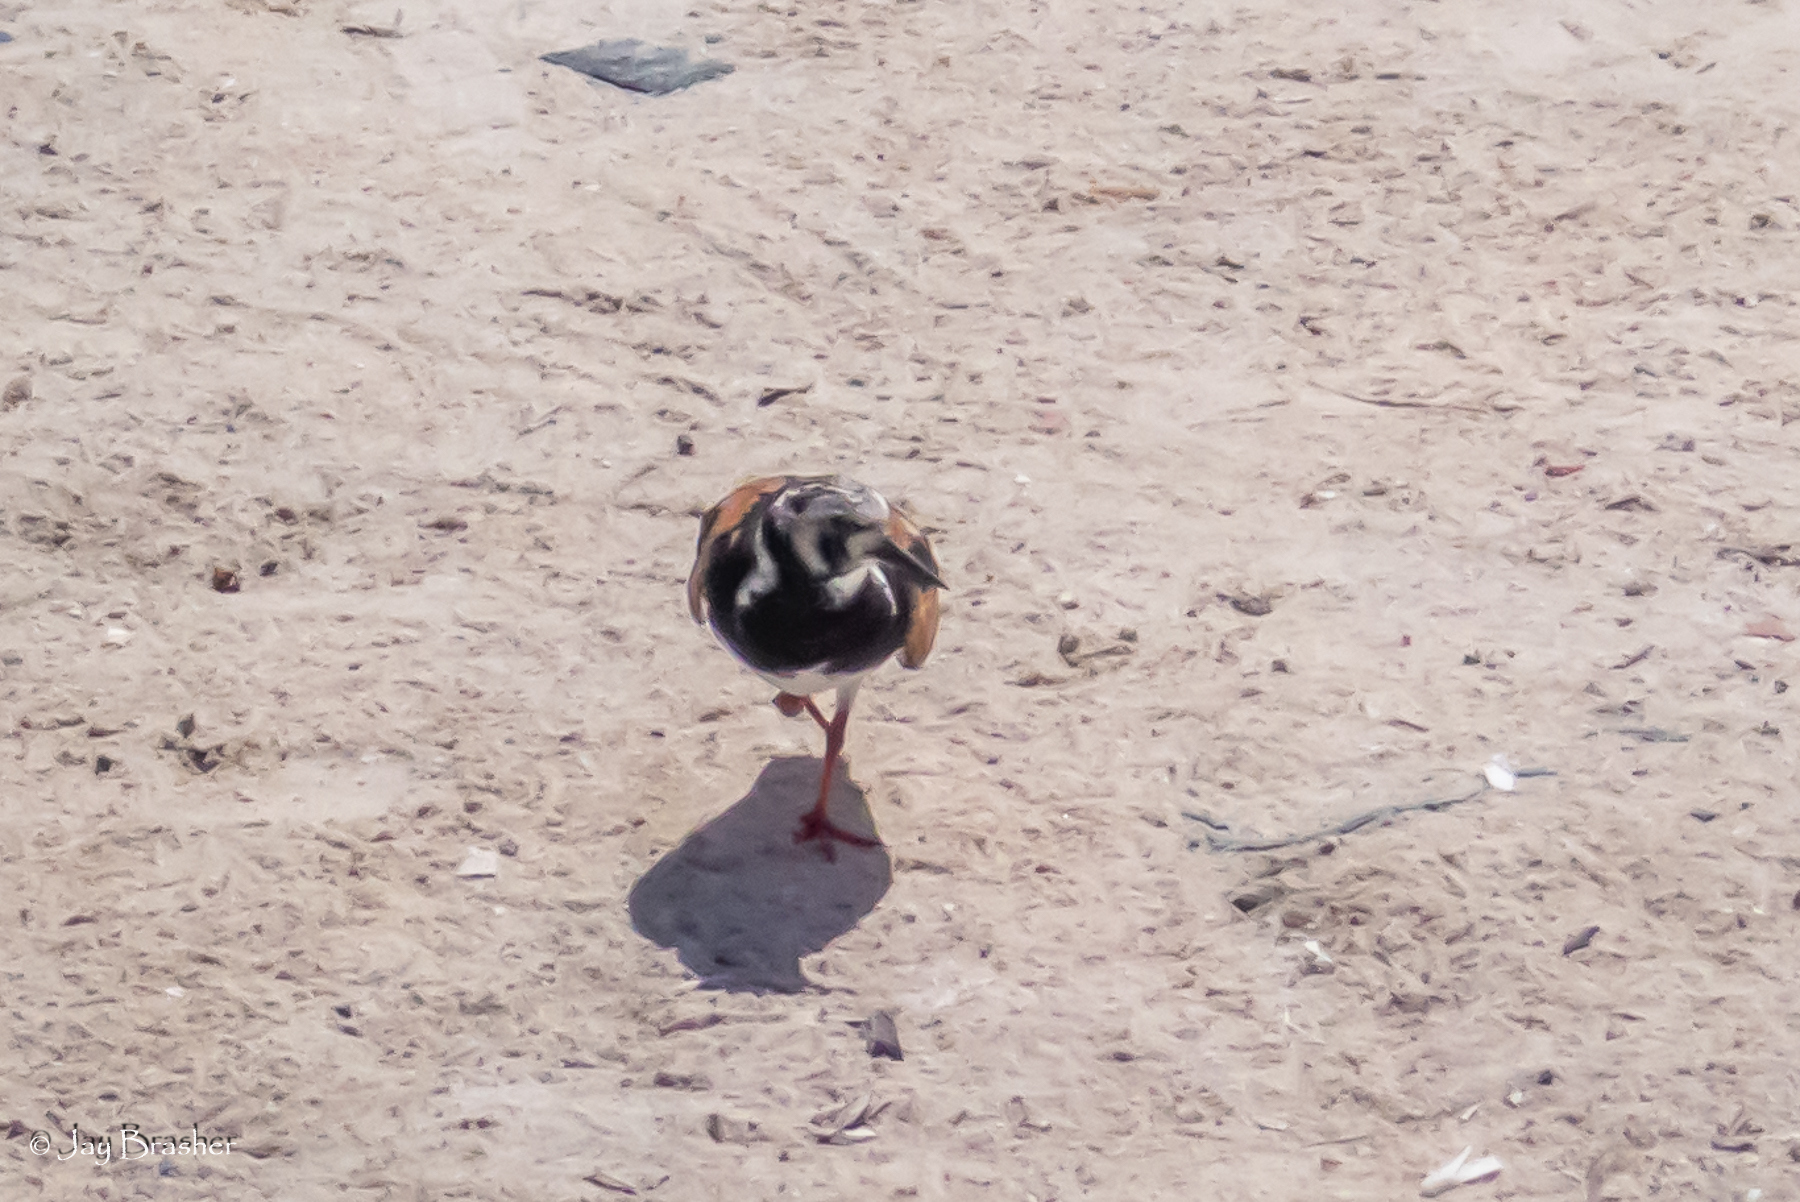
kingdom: Animalia
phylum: Chordata
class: Aves
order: Charadriiformes
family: Scolopacidae
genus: Arenaria
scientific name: Arenaria interpres
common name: Ruddy turnstone
